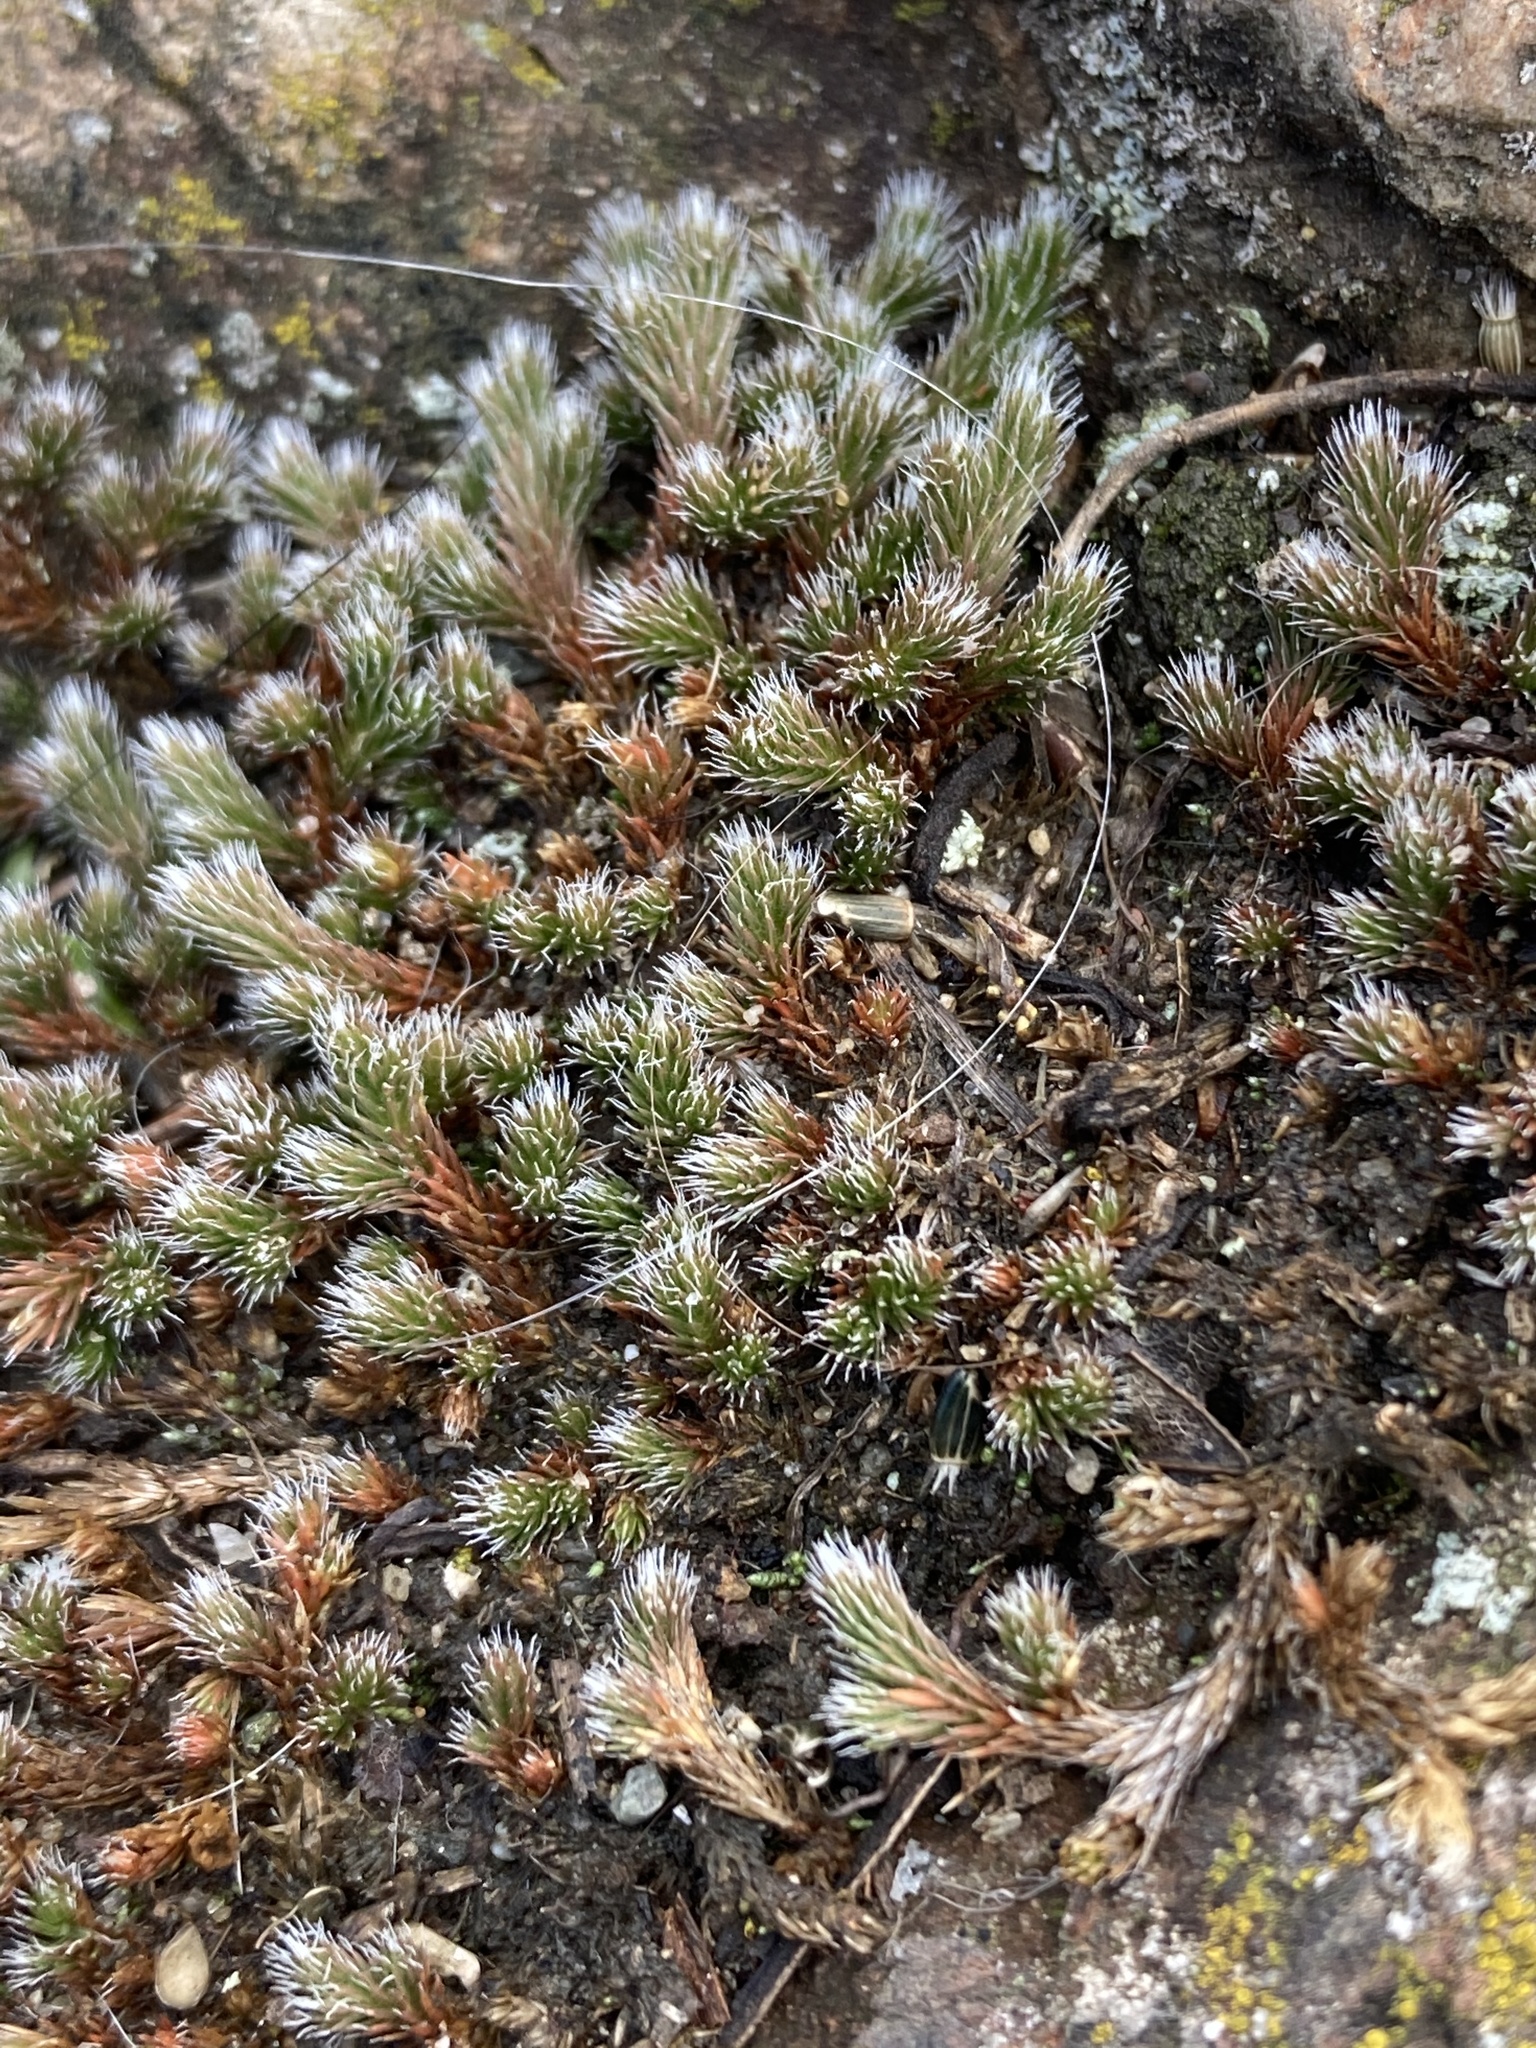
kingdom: Plantae
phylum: Tracheophyta
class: Lycopodiopsida
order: Selaginellales
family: Selaginellaceae
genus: Selaginella
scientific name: Selaginella rupestris
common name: Dwarf spikemoss
